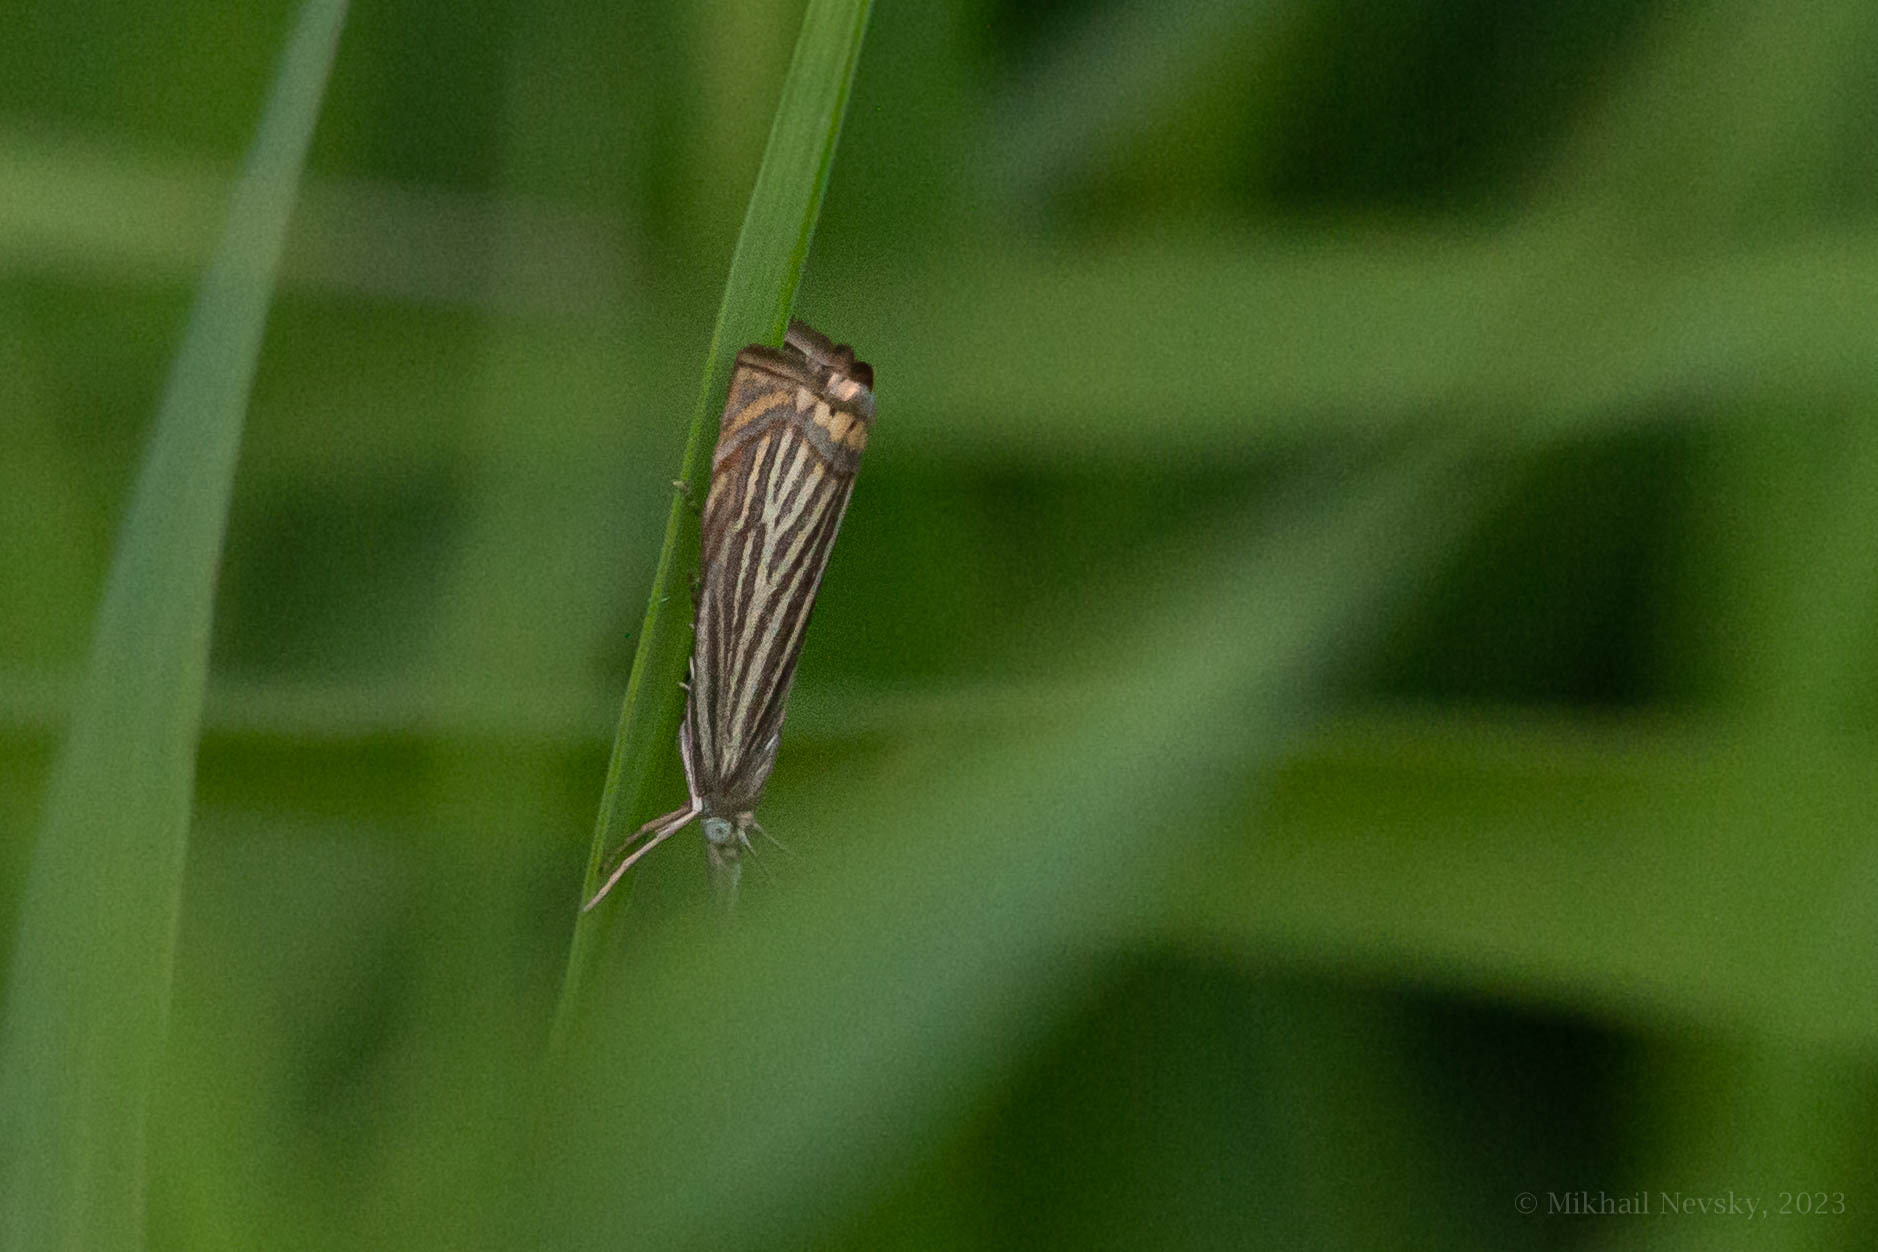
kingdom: Animalia
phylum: Arthropoda
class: Insecta
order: Lepidoptera
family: Crambidae
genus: Chrysoteuchia
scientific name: Chrysoteuchia culmella
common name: Garden grass-veneer
